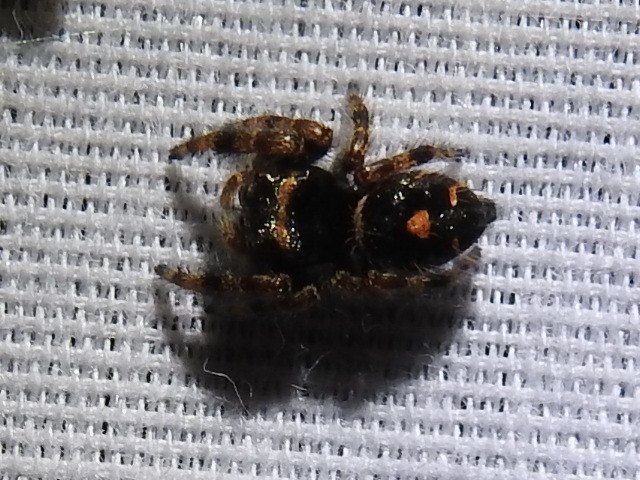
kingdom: Animalia
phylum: Arthropoda
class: Arachnida
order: Araneae
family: Salticidae
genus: Phidippus
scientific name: Phidippus audax
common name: Bold jumper
